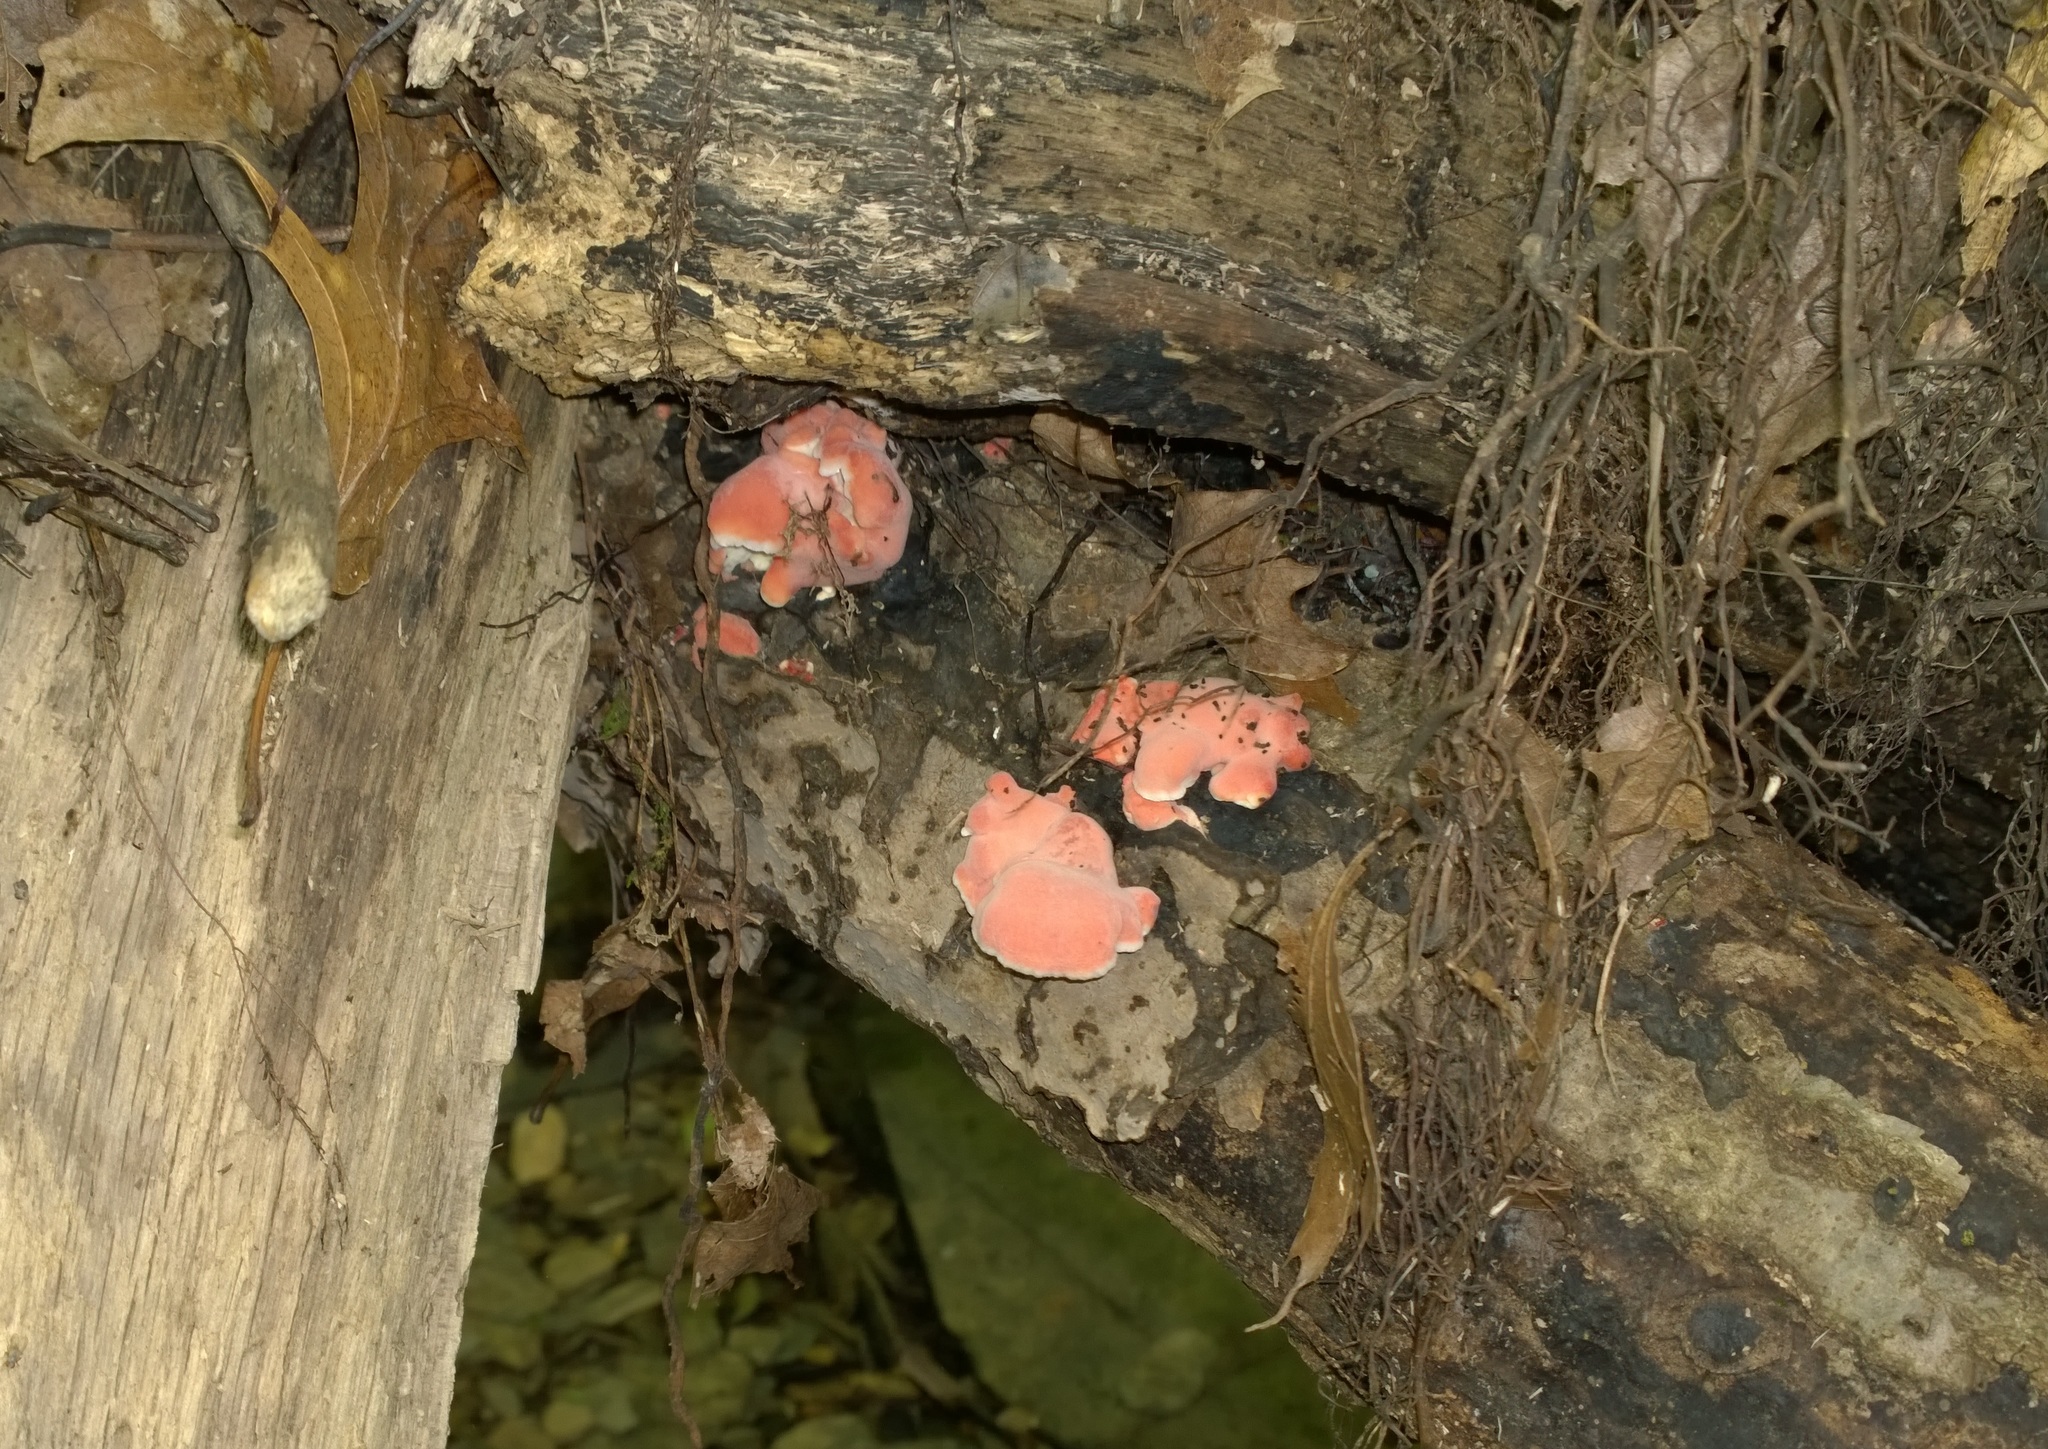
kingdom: Fungi
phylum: Basidiomycota
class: Agaricomycetes
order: Polyporales
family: Irpicaceae
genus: Byssomerulius
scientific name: Byssomerulius incarnatus
